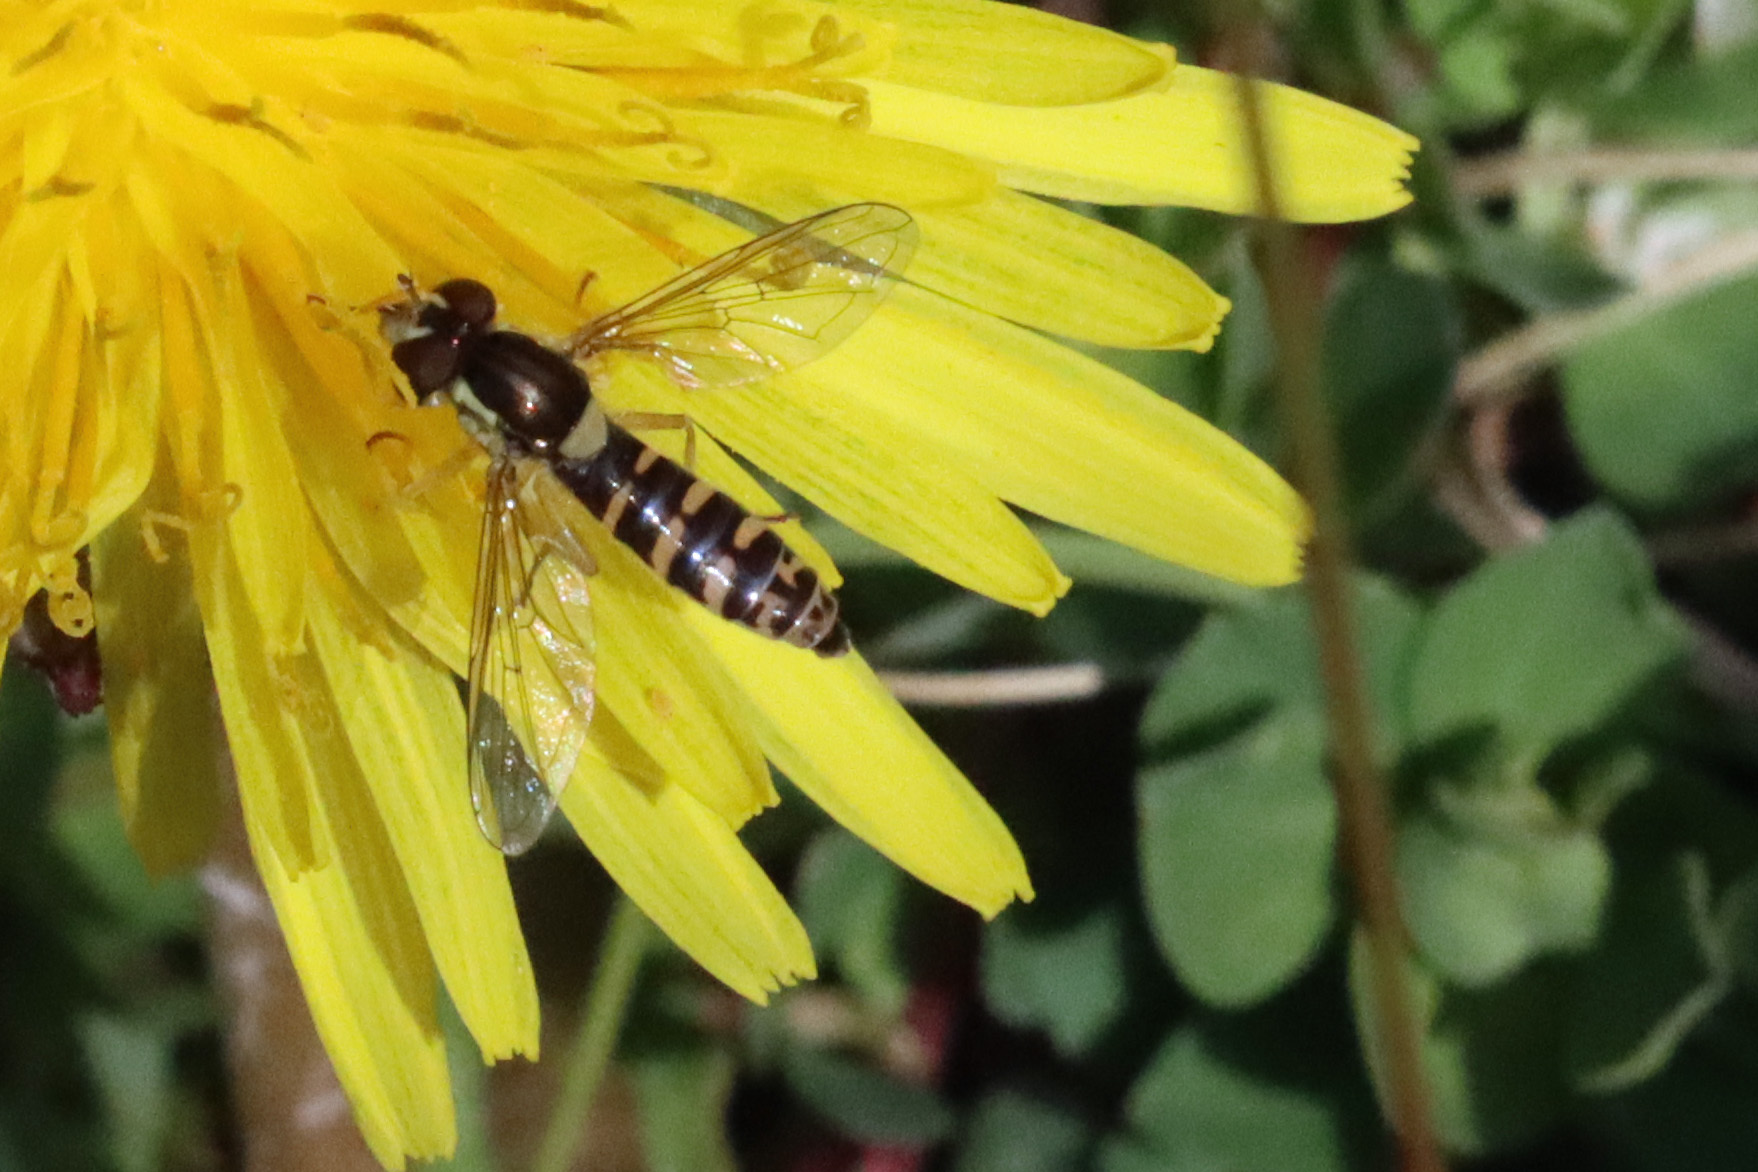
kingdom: Animalia
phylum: Arthropoda
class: Insecta
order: Diptera
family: Syrphidae
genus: Sphaerophoria
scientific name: Sphaerophoria
